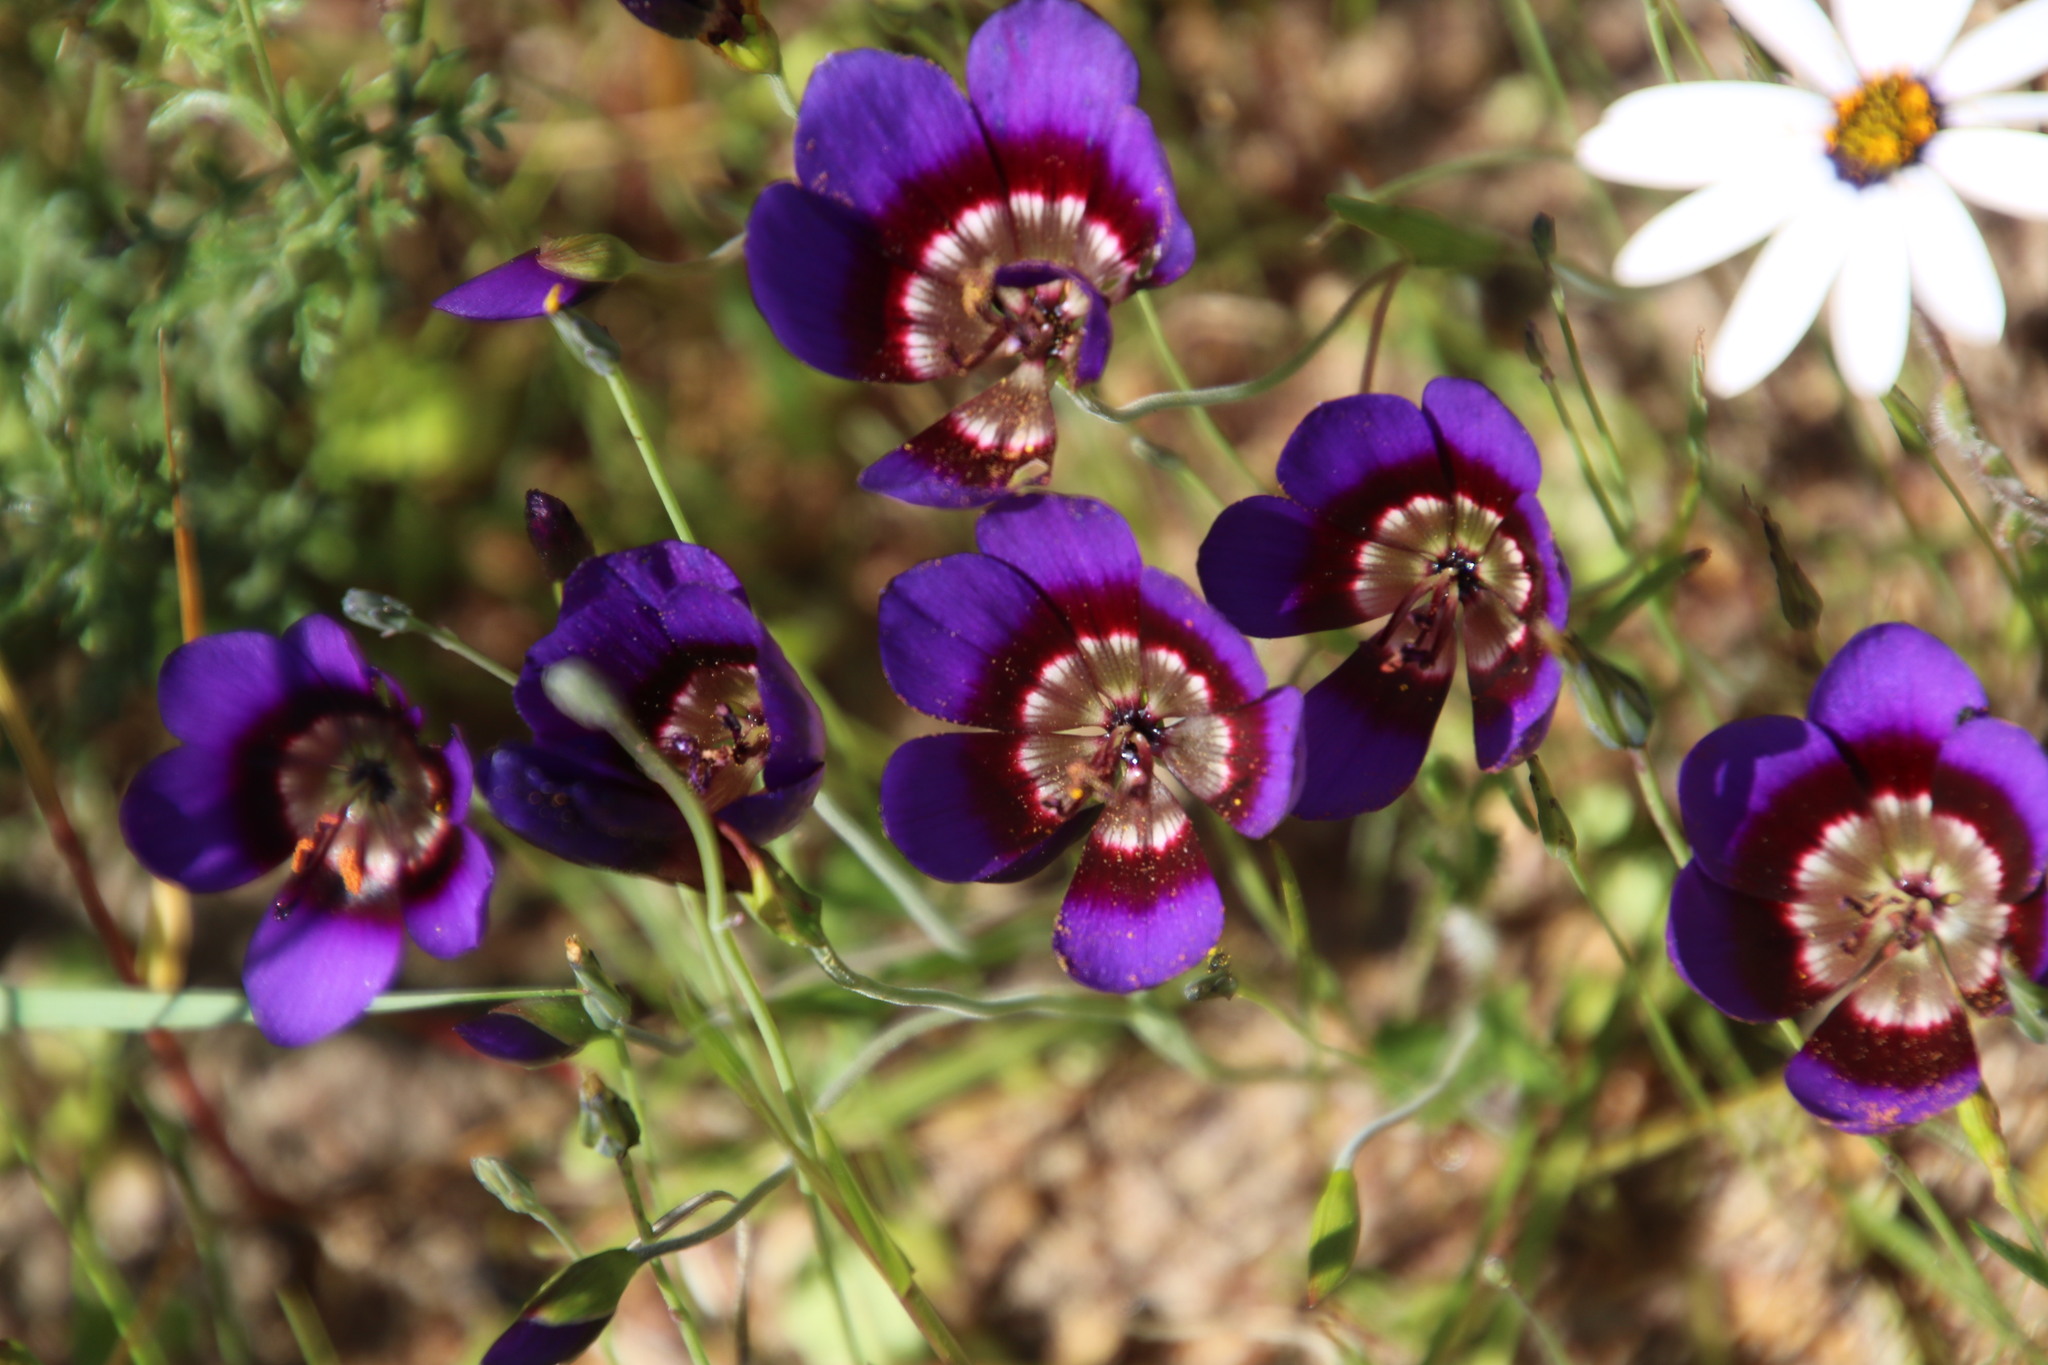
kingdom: Plantae
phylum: Tracheophyta
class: Liliopsida
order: Asparagales
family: Iridaceae
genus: Geissorhiza
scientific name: Geissorhiza monanthos
